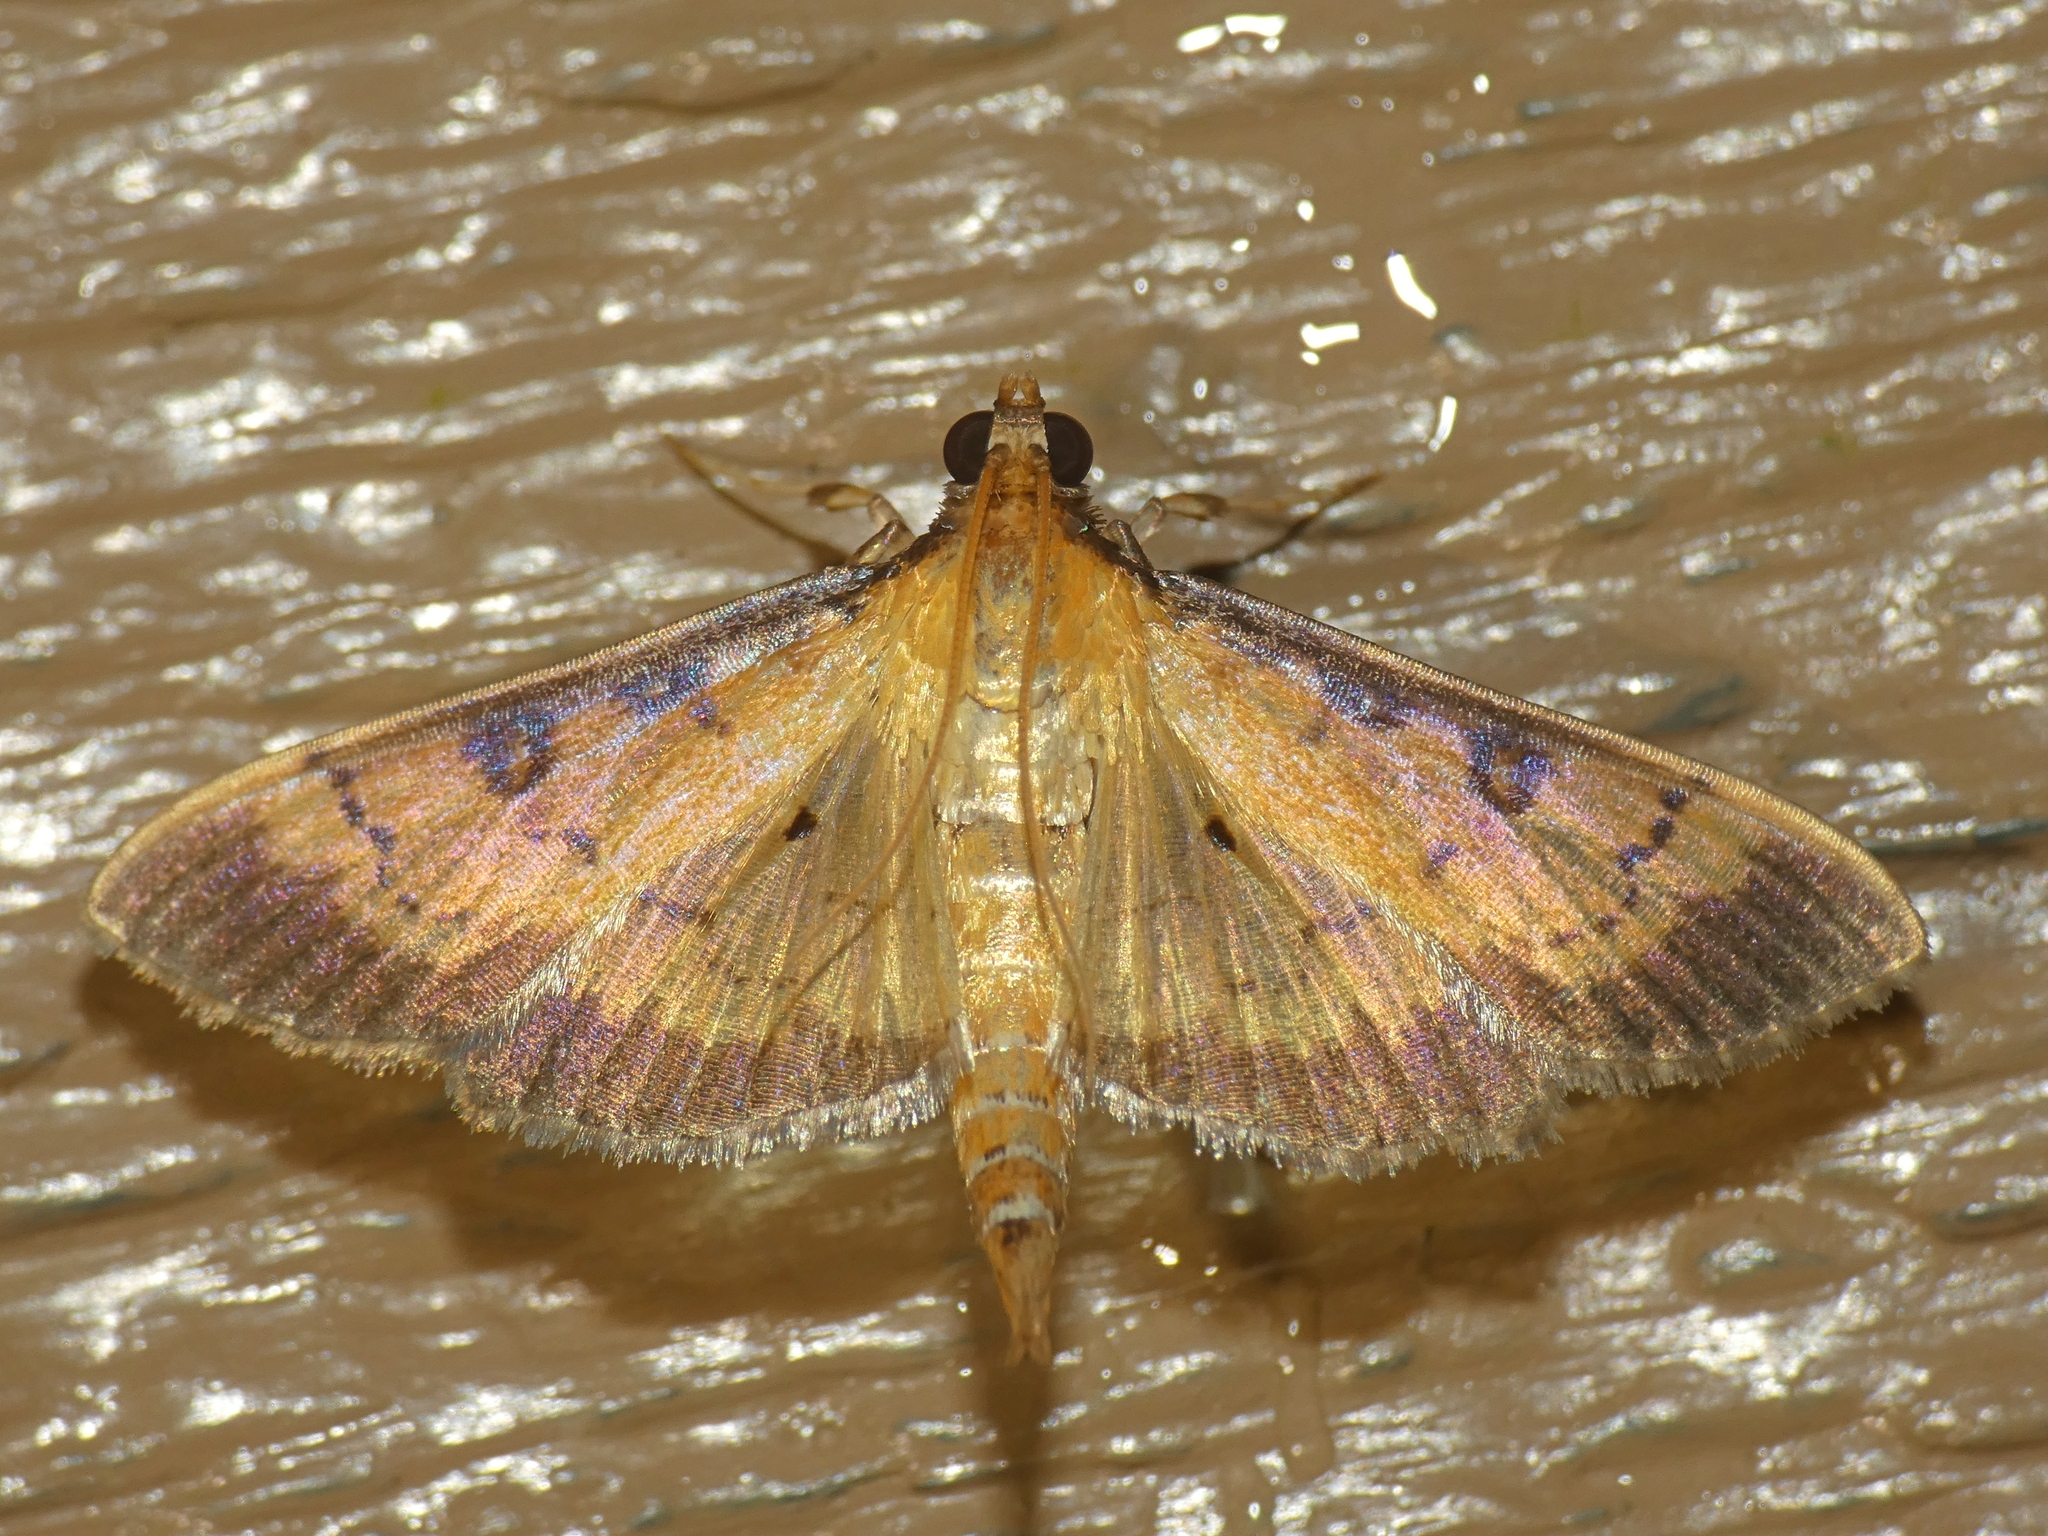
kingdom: Animalia
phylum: Arthropoda
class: Insecta
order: Lepidoptera
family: Crambidae
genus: Ategumia
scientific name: Ategumia adipalis
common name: Moth
